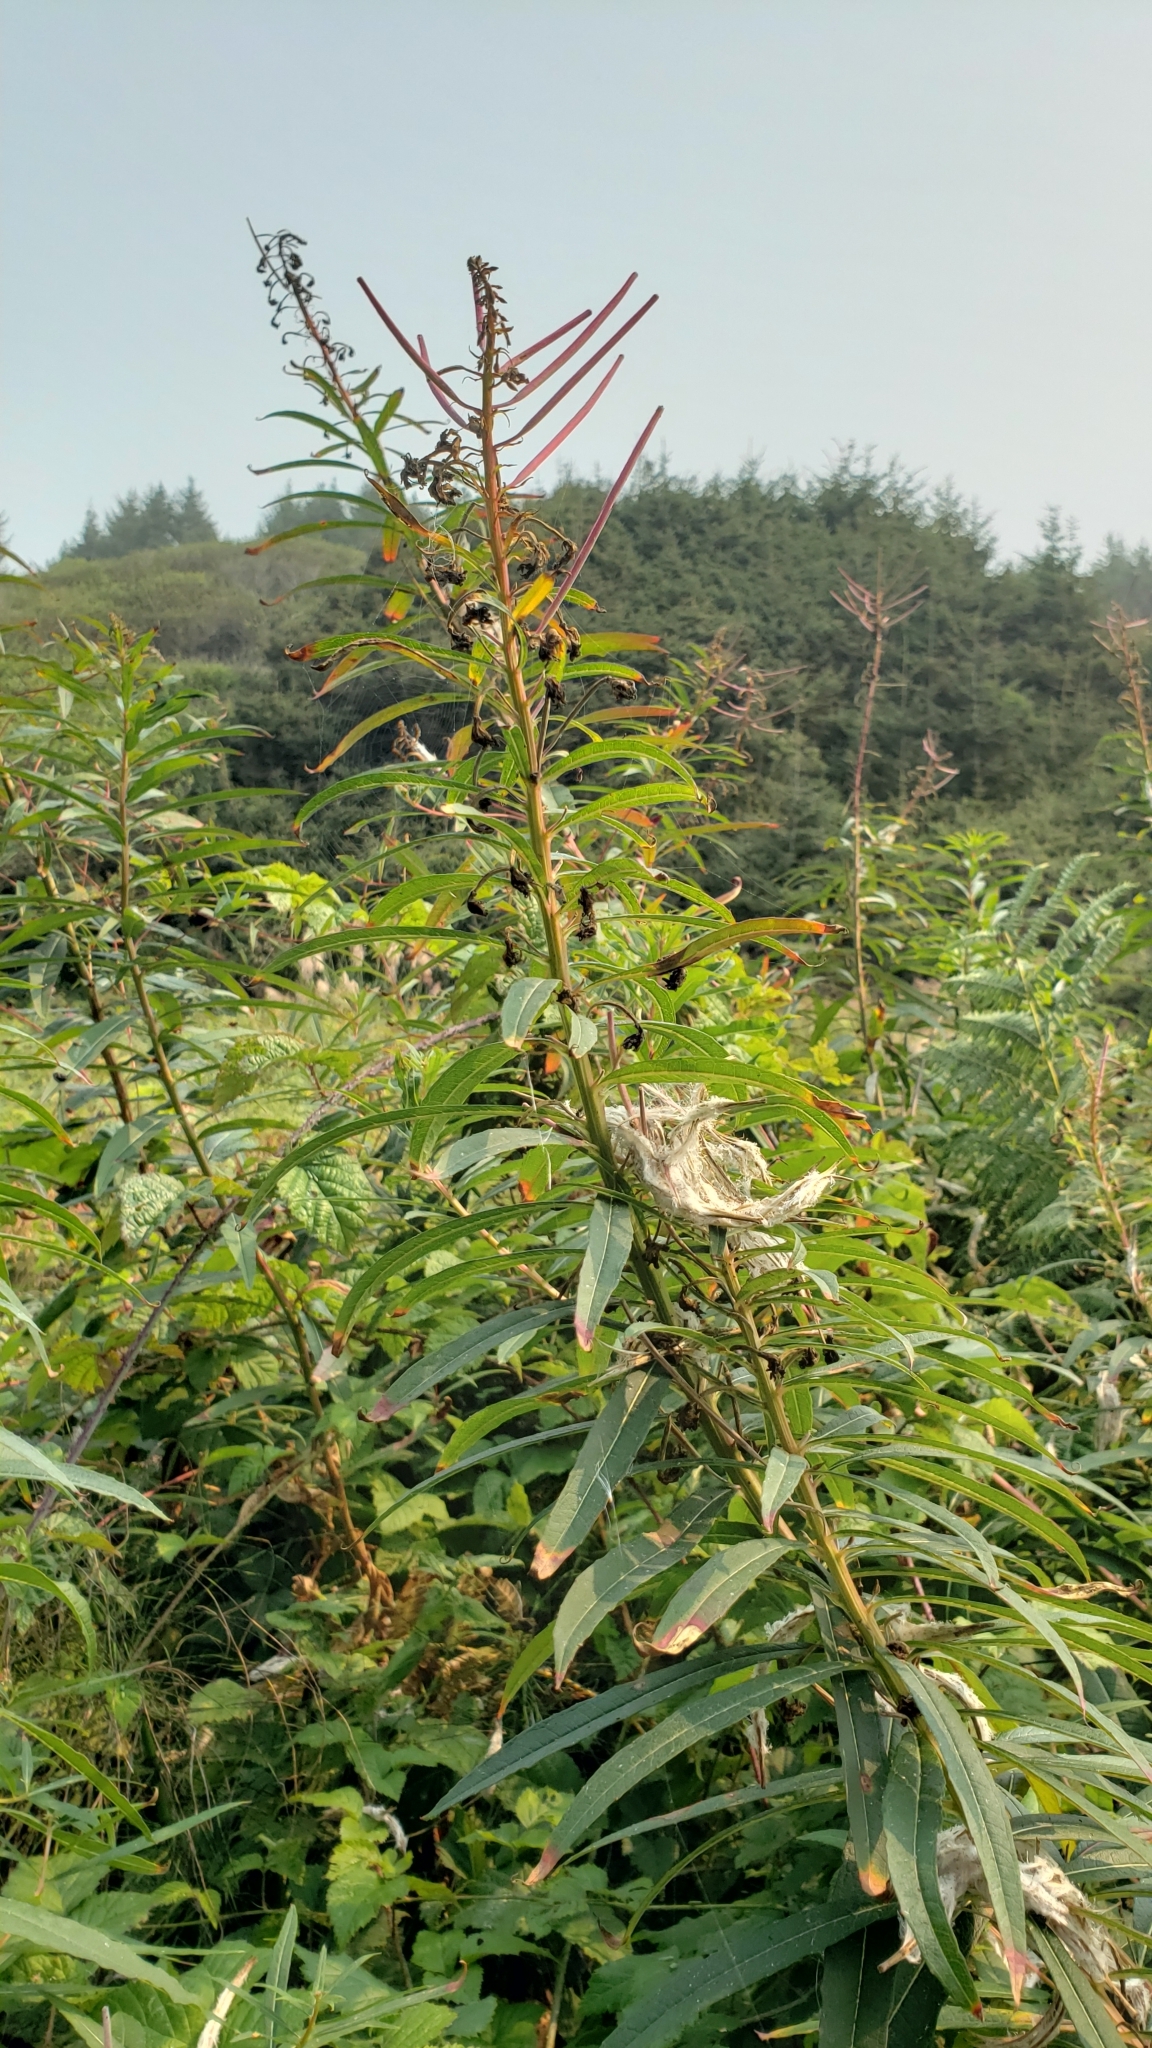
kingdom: Plantae
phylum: Tracheophyta
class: Magnoliopsida
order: Myrtales
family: Onagraceae
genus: Chamaenerion
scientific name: Chamaenerion angustifolium
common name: Fireweed
